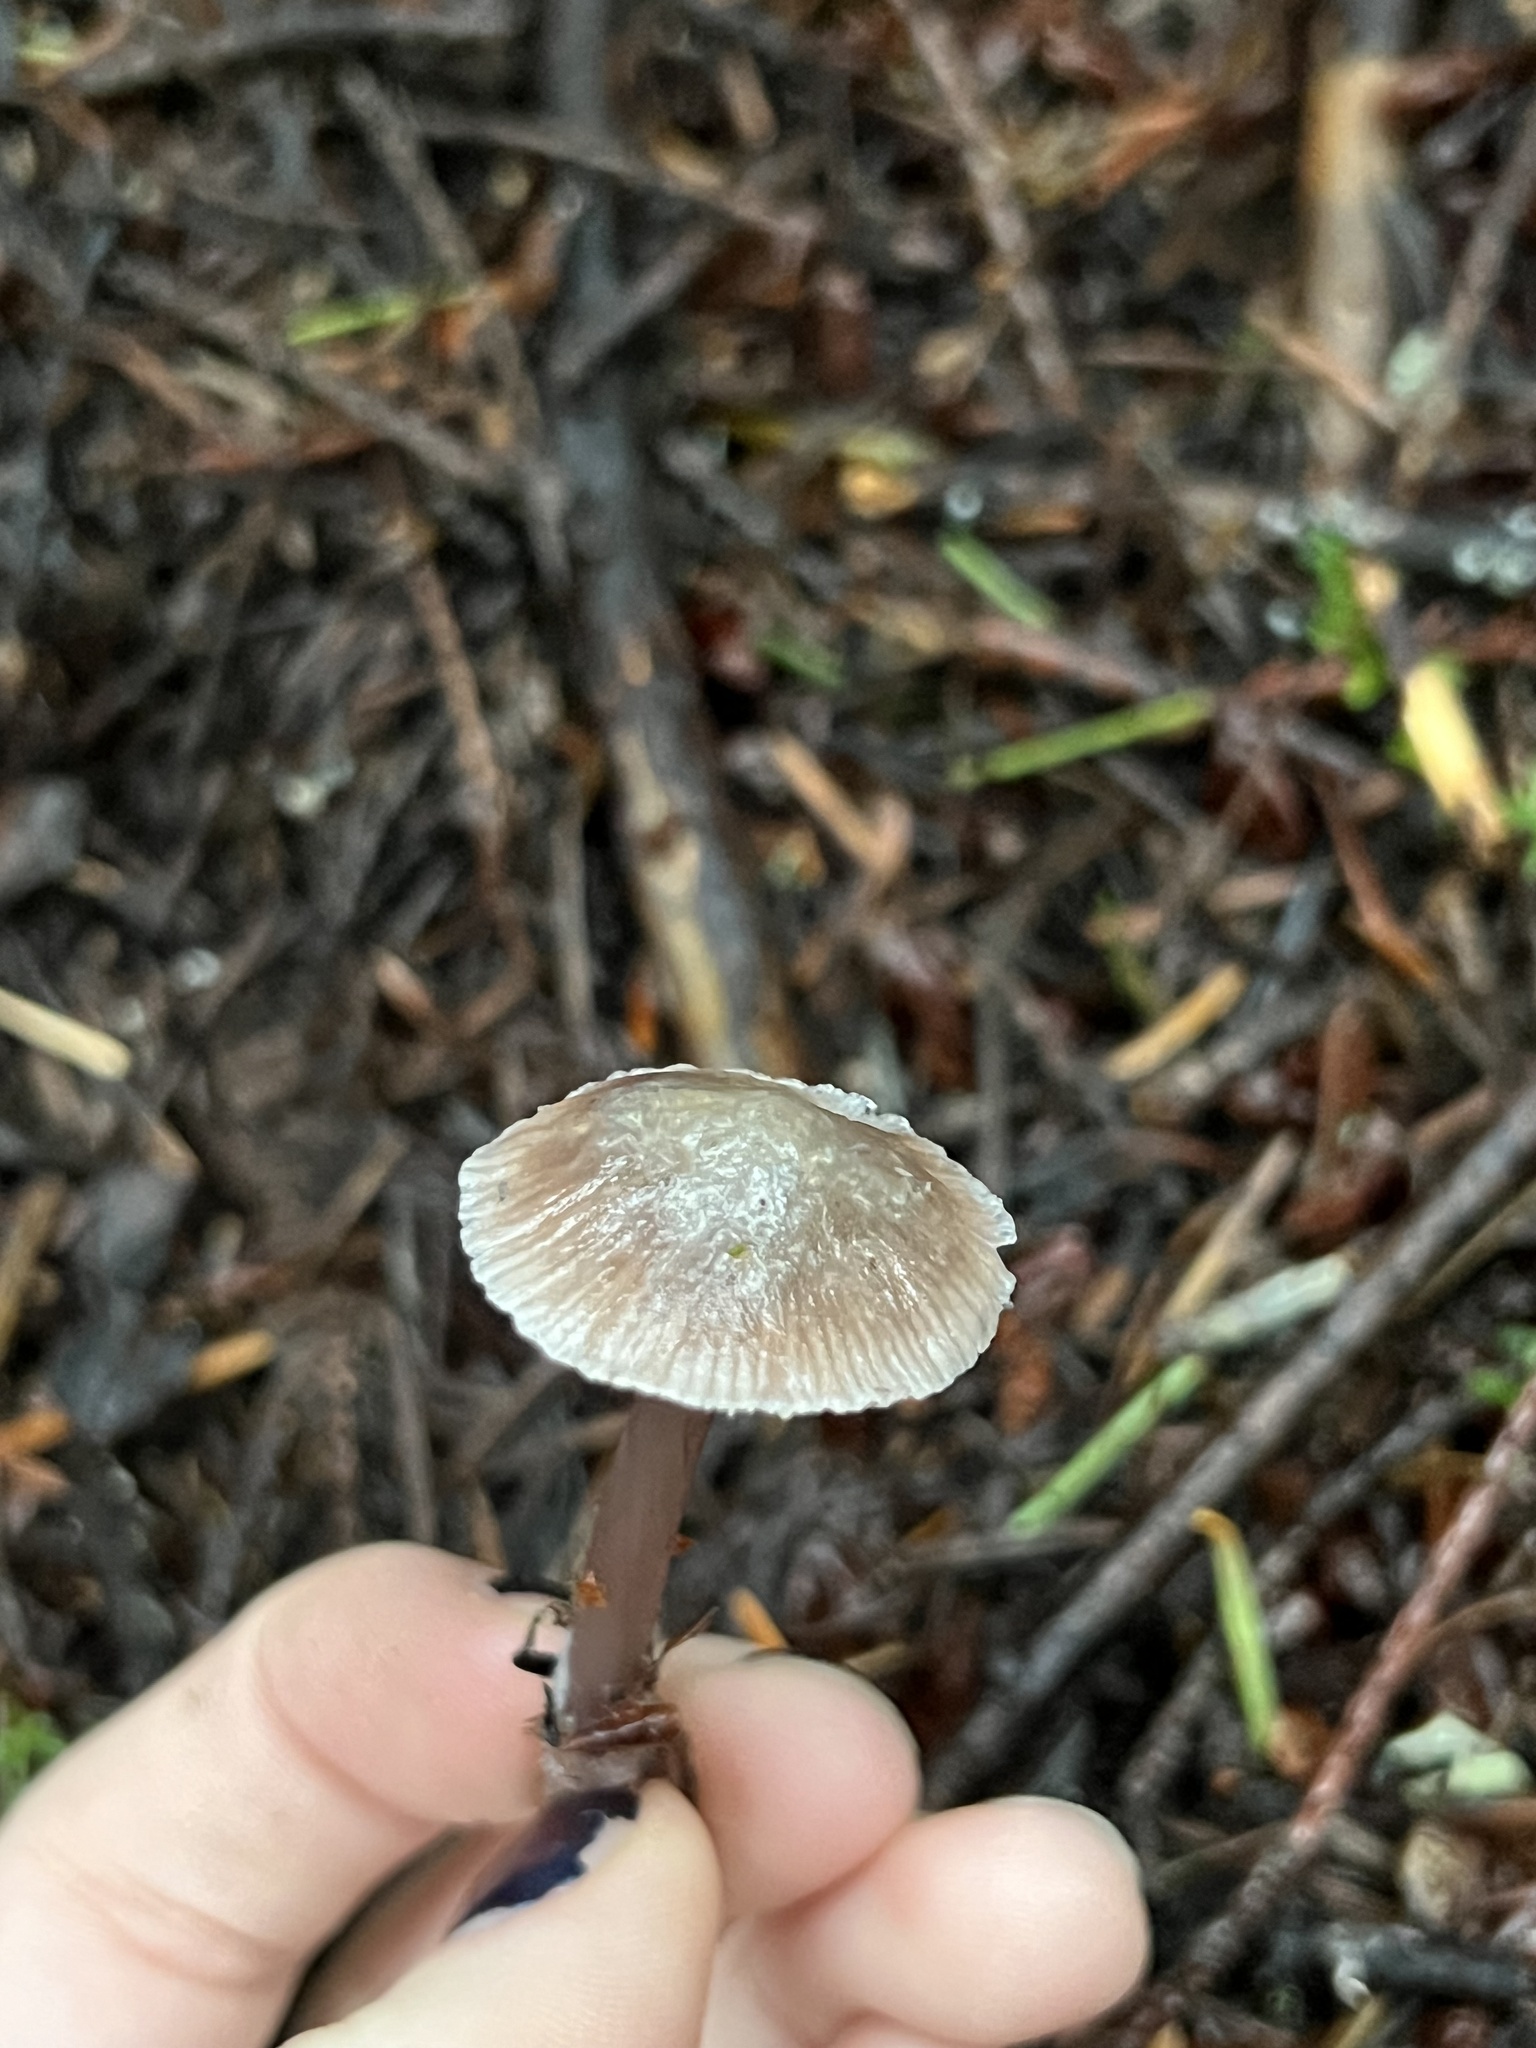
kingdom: Fungi
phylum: Basidiomycota
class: Agaricomycetes
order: Agaricales
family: Mycenaceae
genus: Mycena
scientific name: Mycena pura
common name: Lilac bonnet
